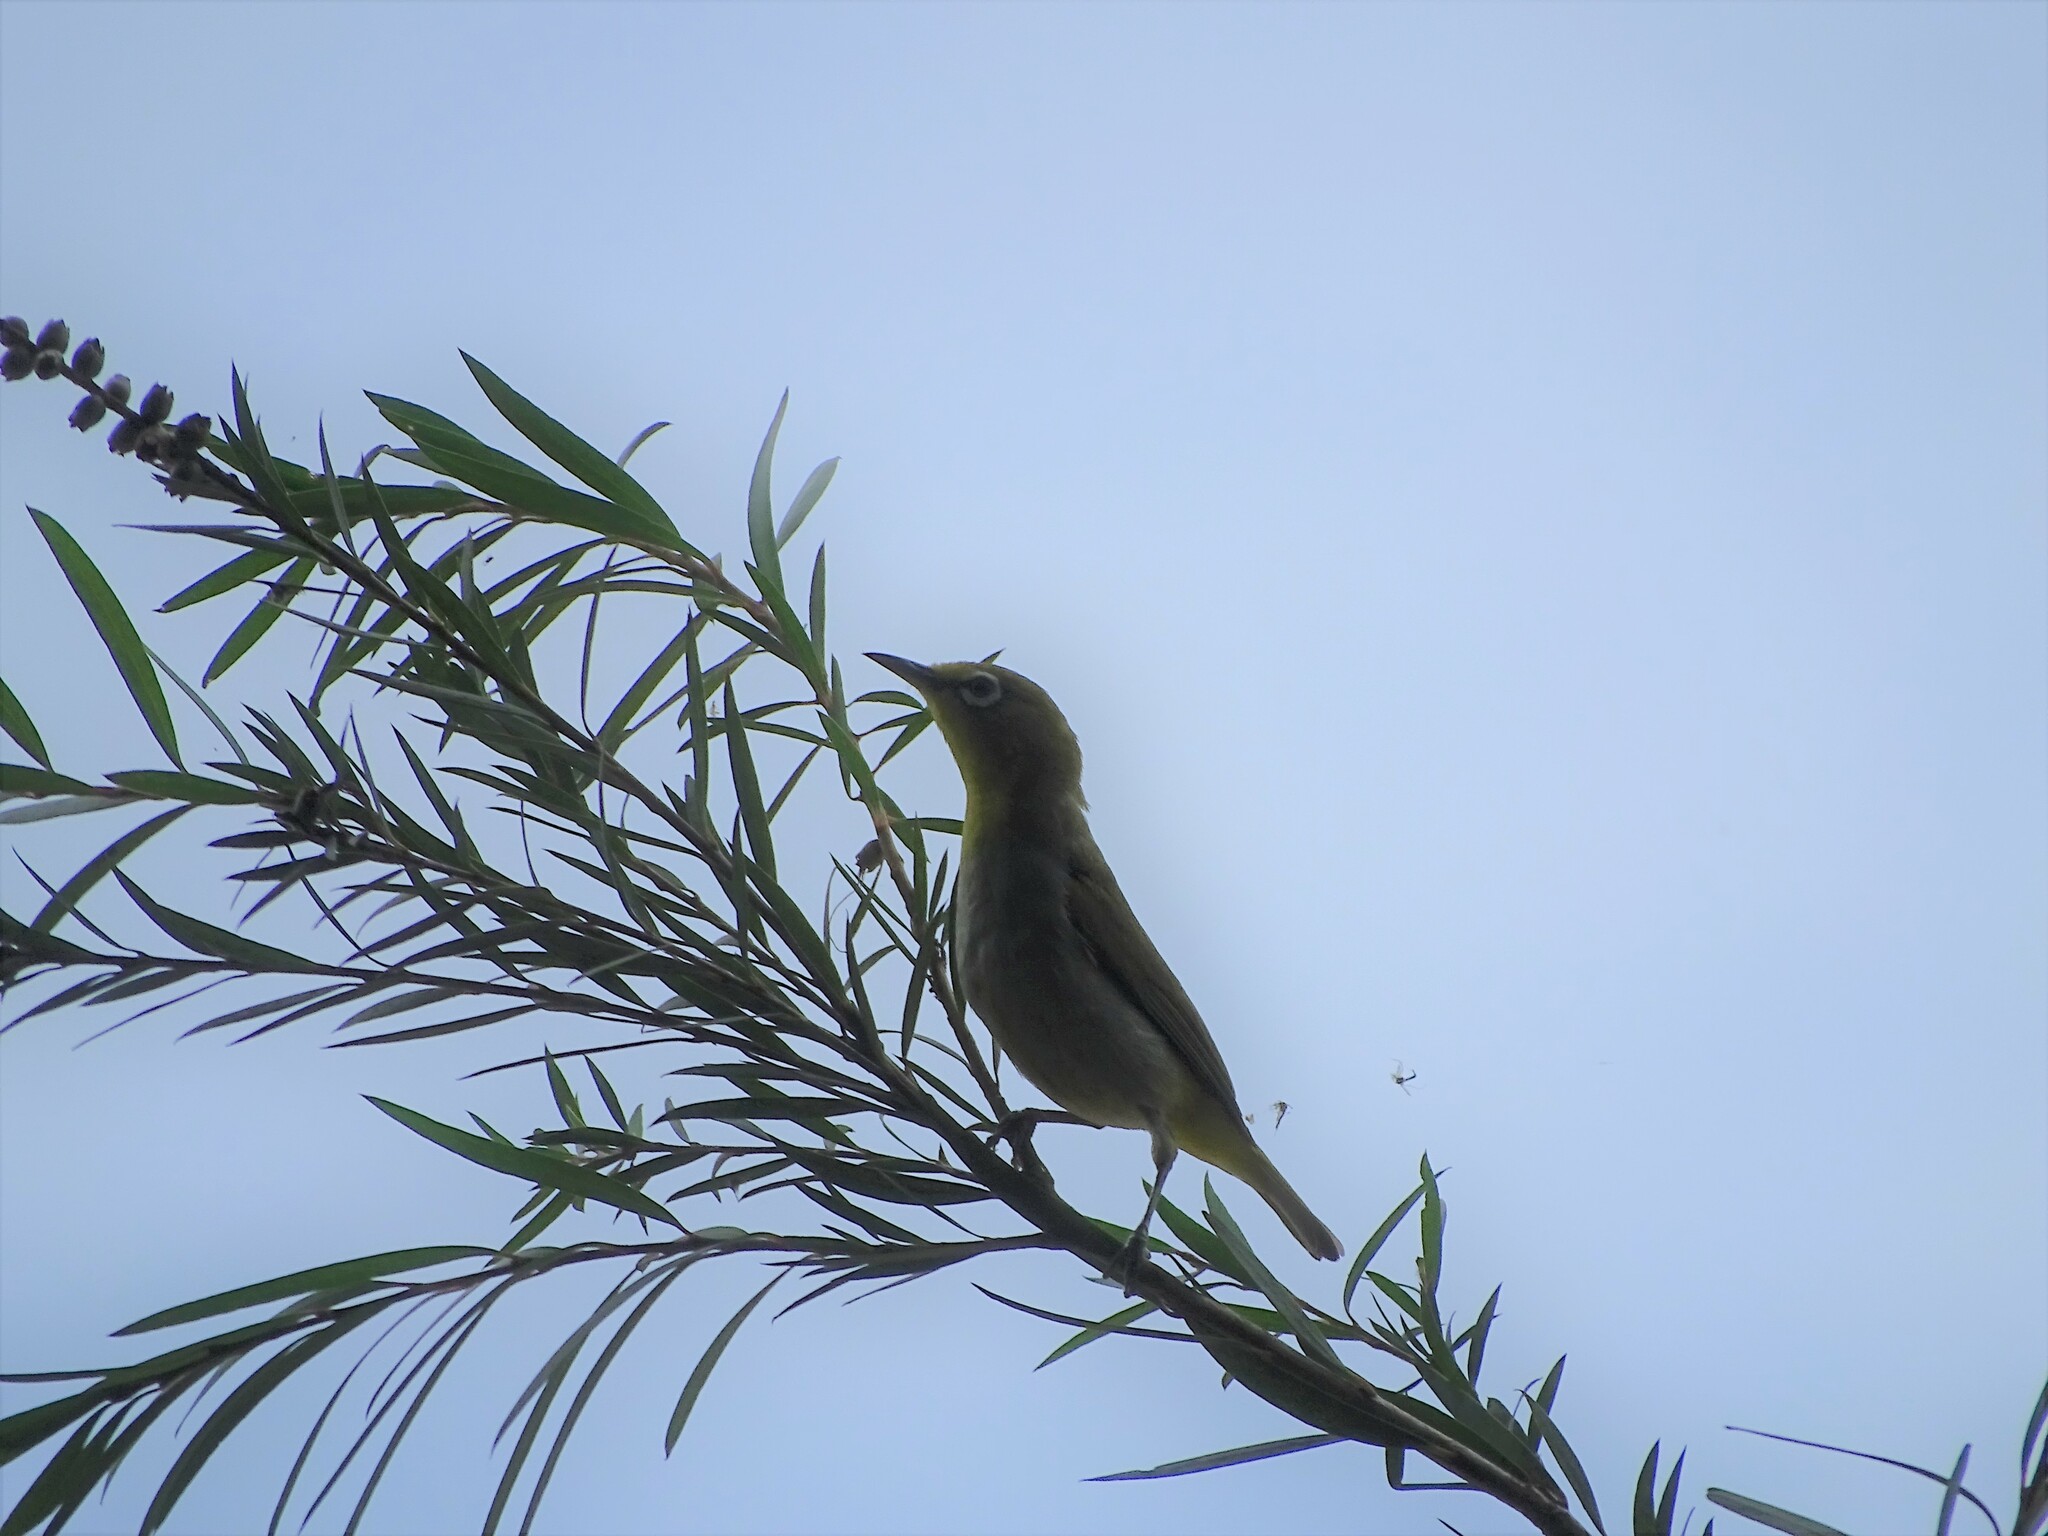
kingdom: Animalia
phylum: Chordata
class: Aves
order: Passeriformes
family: Zosteropidae
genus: Zosterops
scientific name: Zosterops simplex
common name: Swinhoe's white-eye
